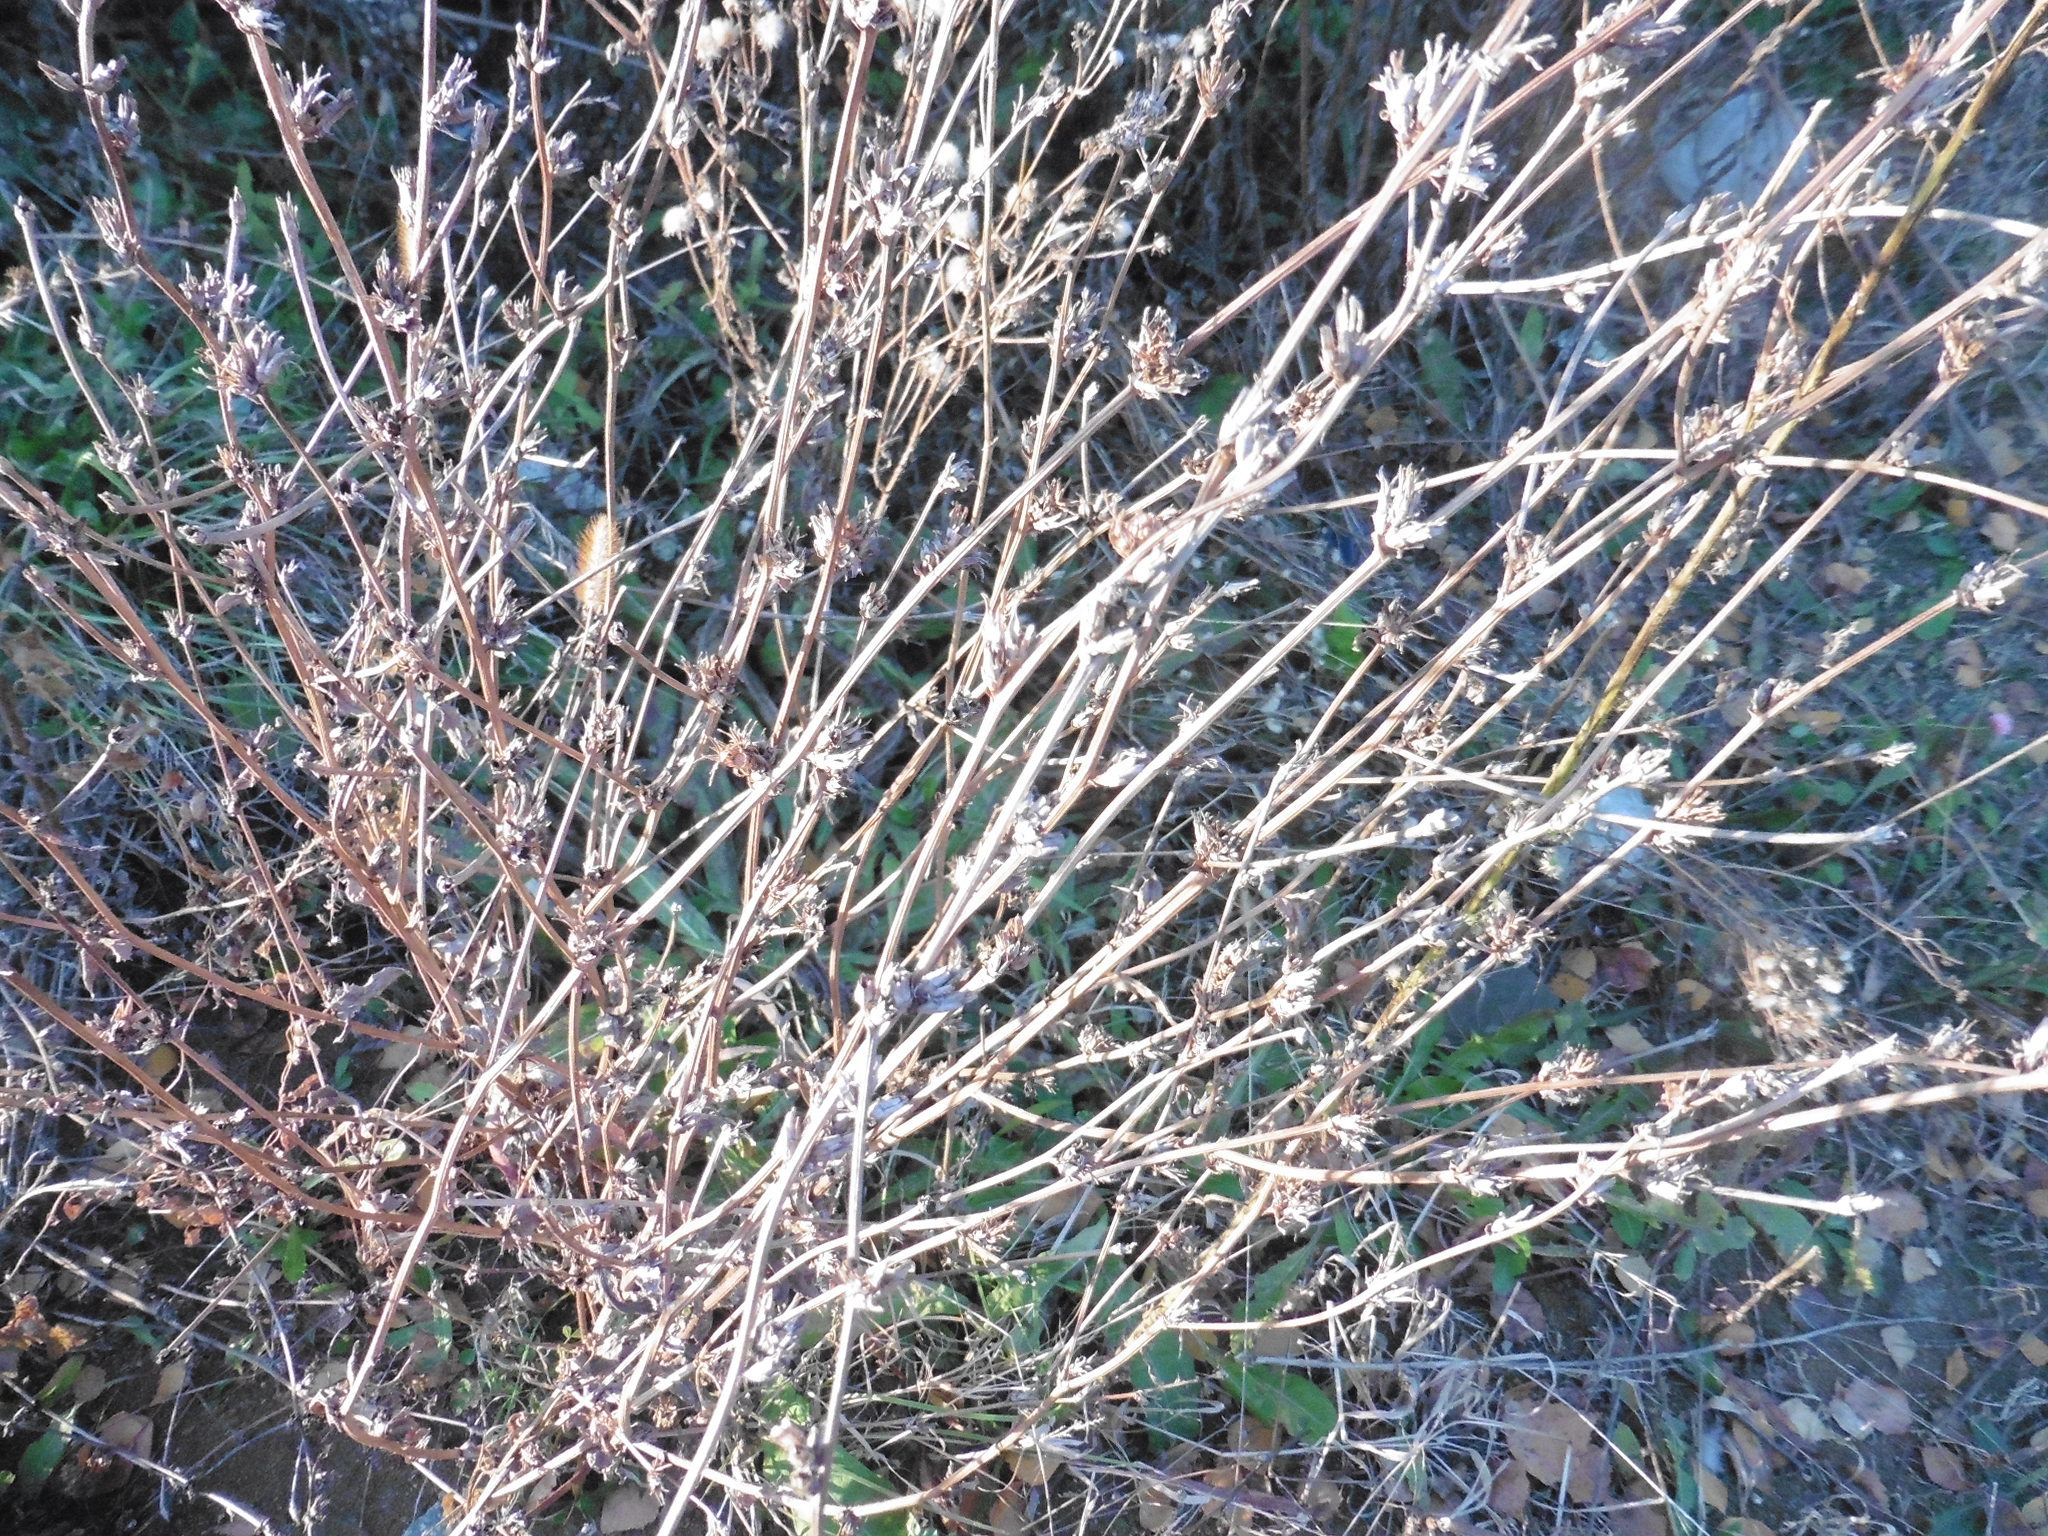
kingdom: Plantae
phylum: Tracheophyta
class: Magnoliopsida
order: Asterales
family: Asteraceae
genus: Cichorium
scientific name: Cichorium intybus
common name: Chicory
